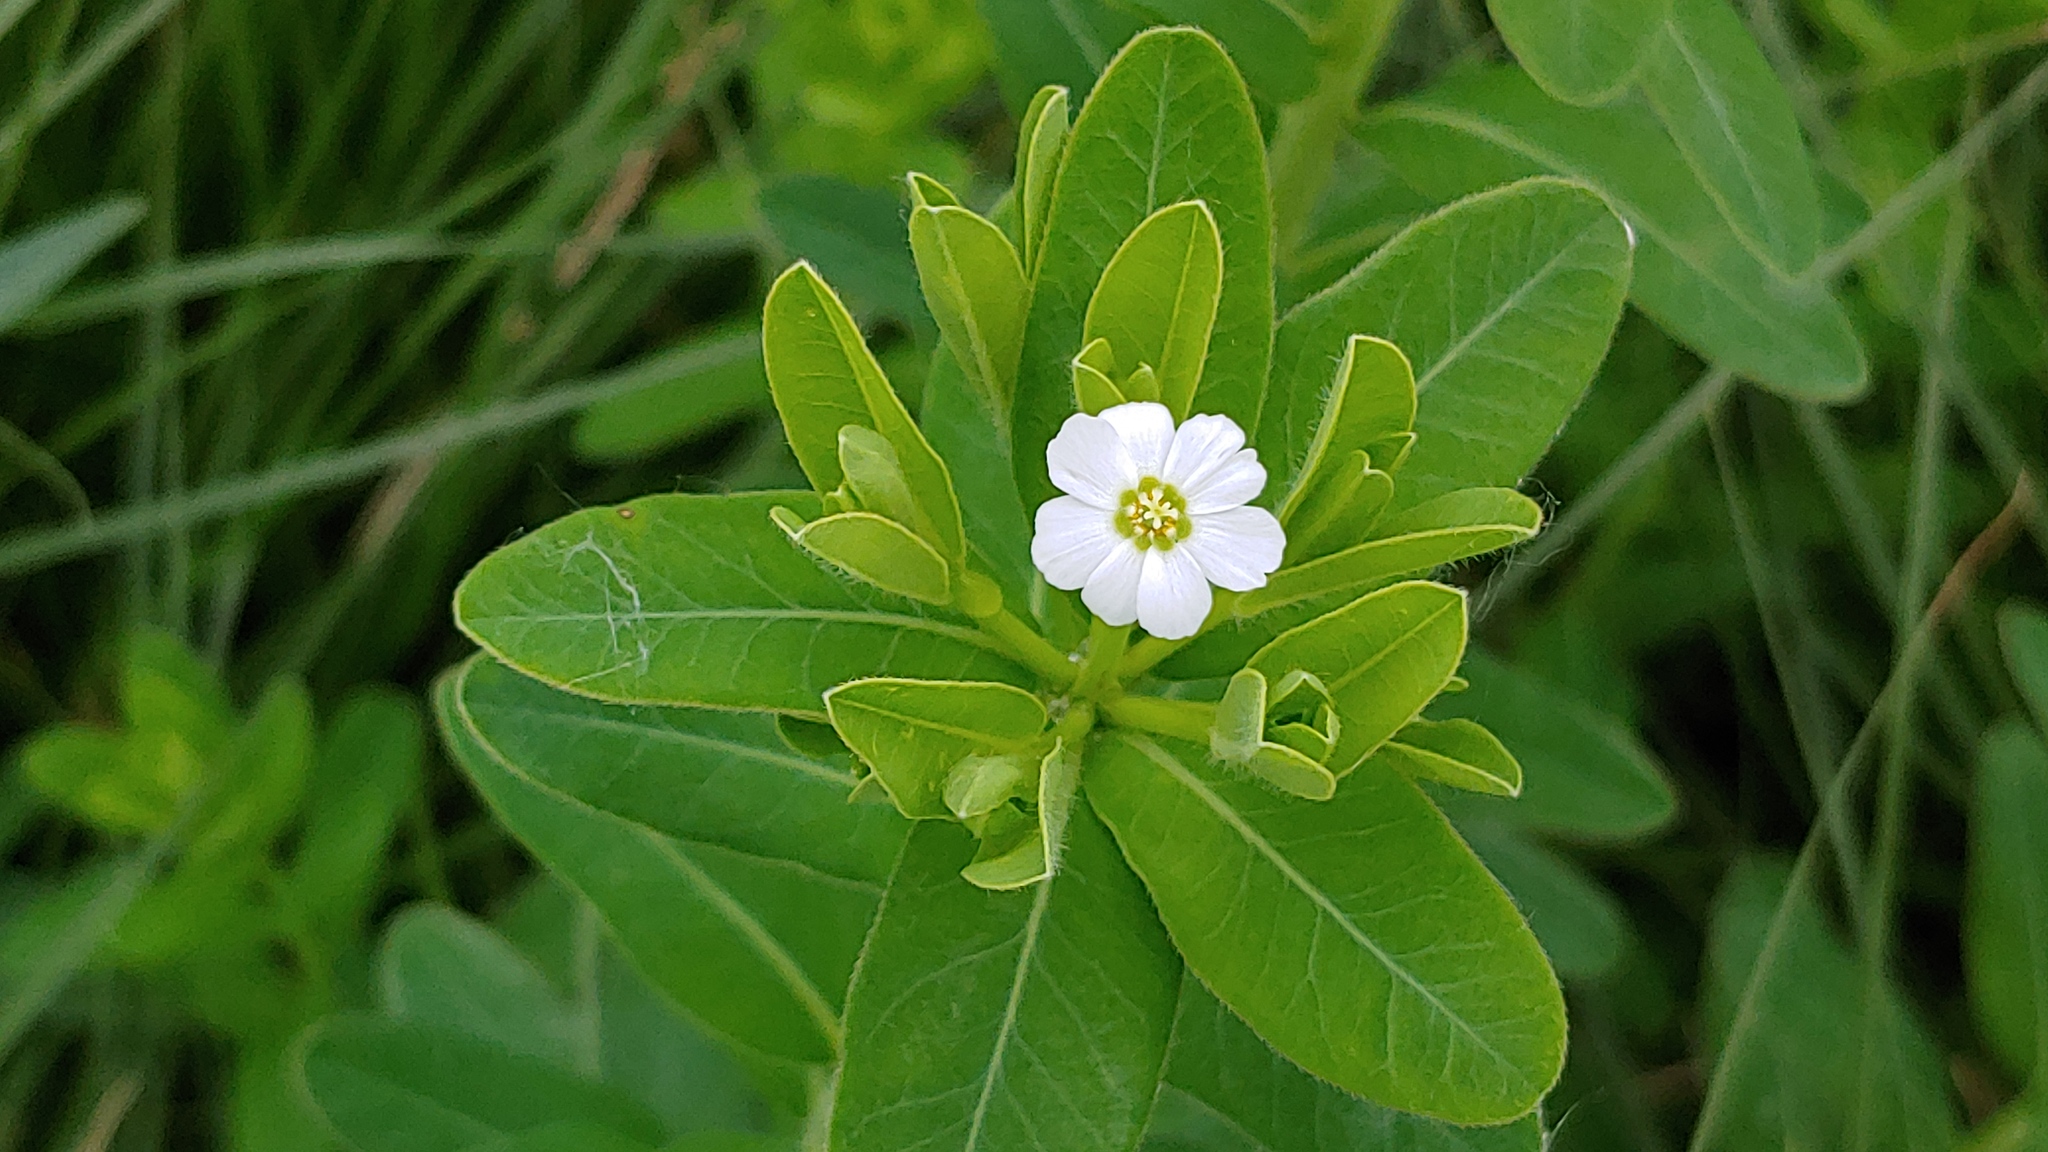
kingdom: Plantae
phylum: Tracheophyta
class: Magnoliopsida
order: Malpighiales
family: Euphorbiaceae
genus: Euphorbia
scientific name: Euphorbia corollata
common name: Flowering spurge
